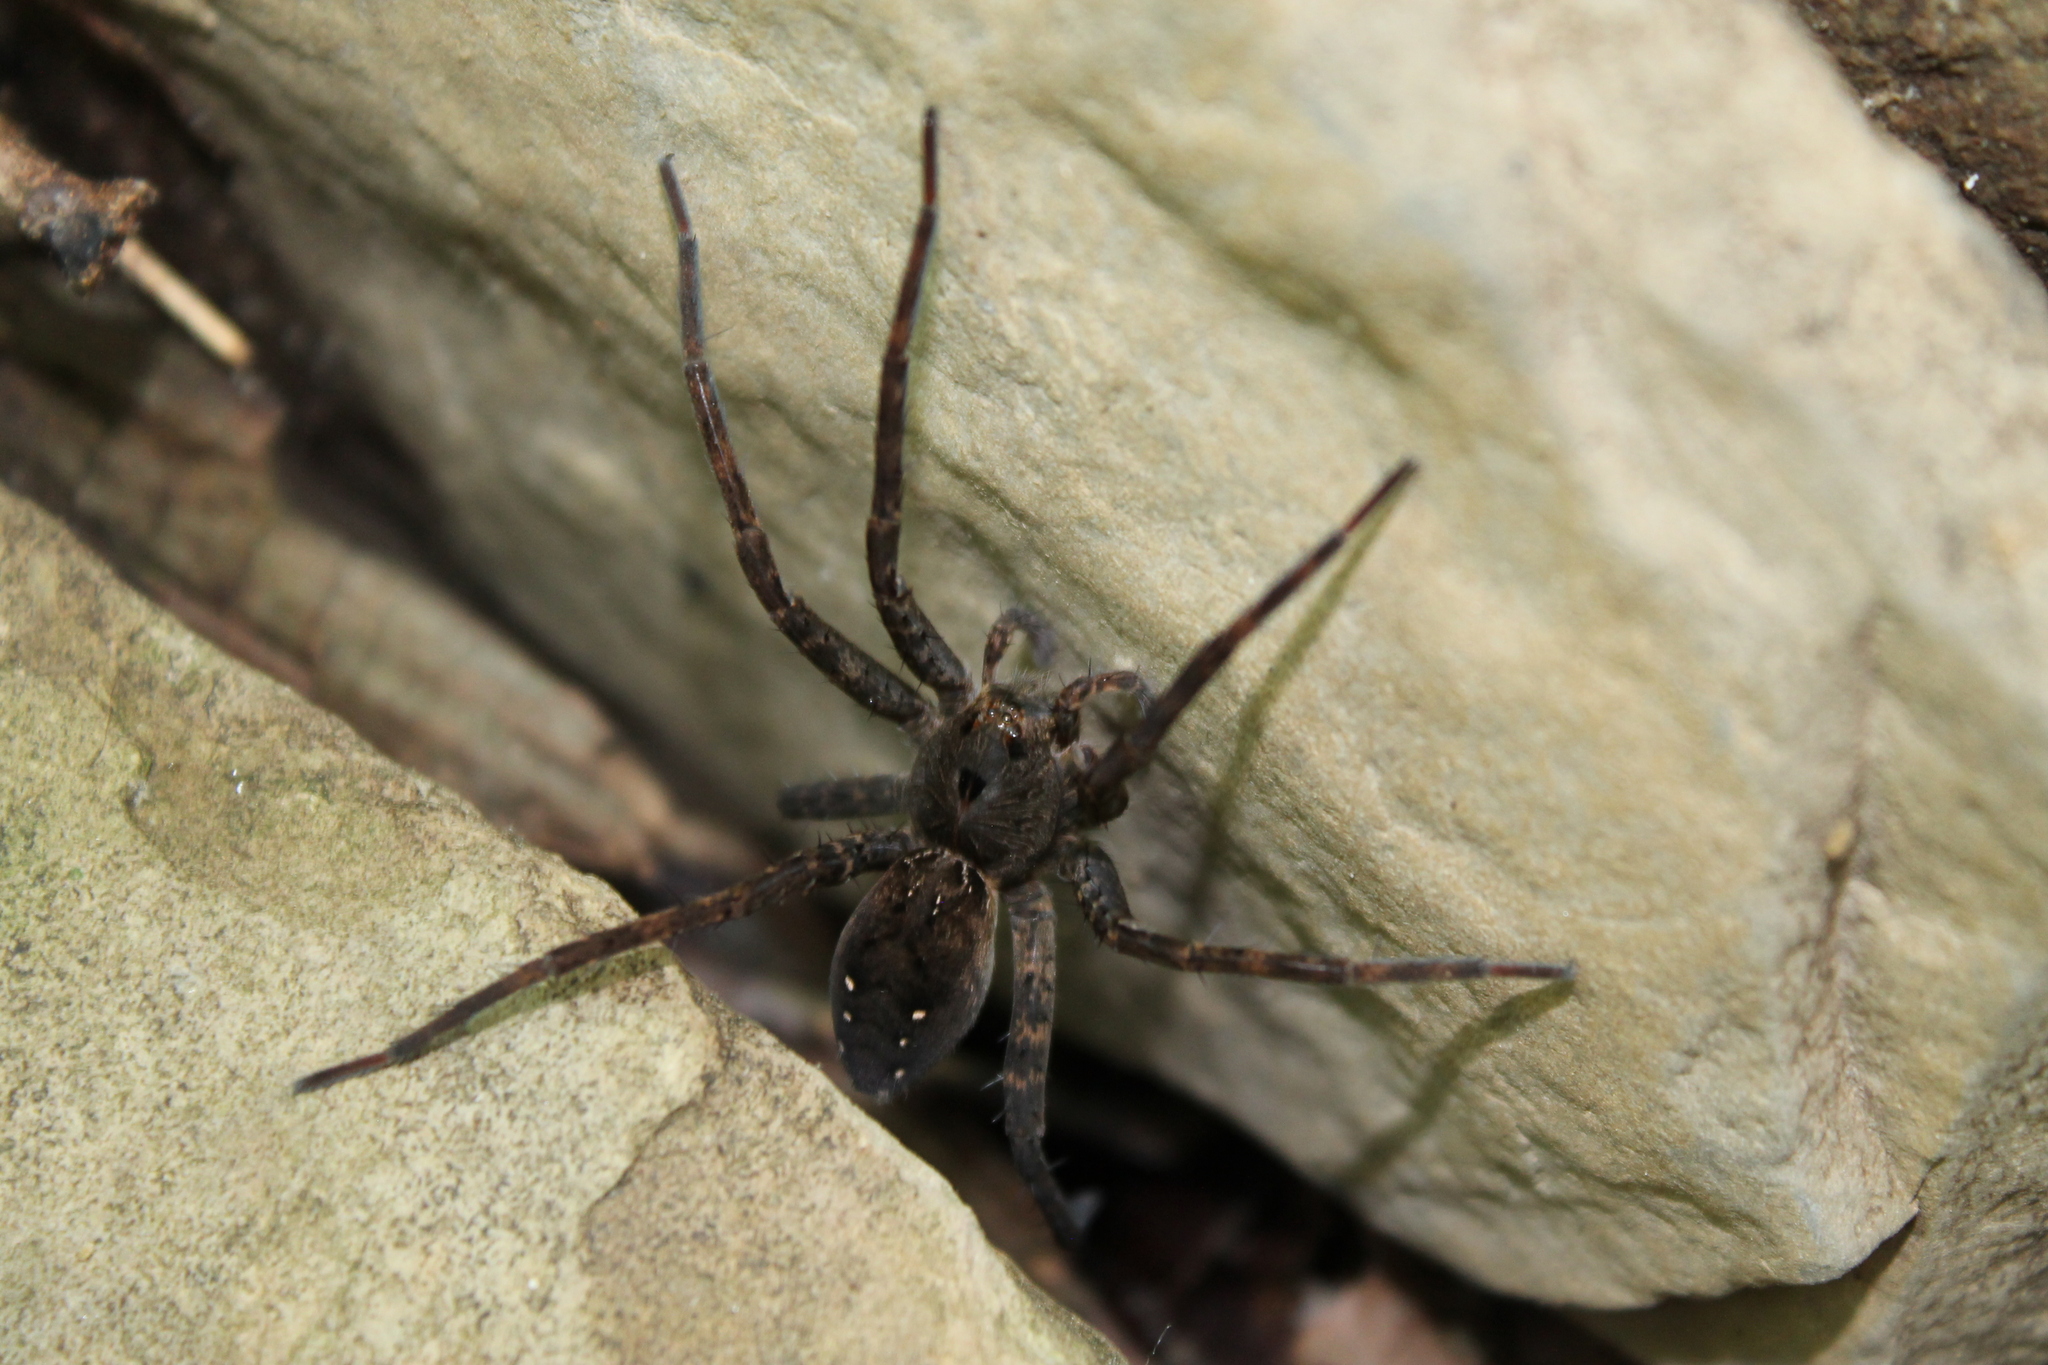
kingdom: Animalia
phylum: Arthropoda
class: Arachnida
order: Araneae
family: Pisauridae
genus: Dolomedes
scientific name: Dolomedes vittatus
